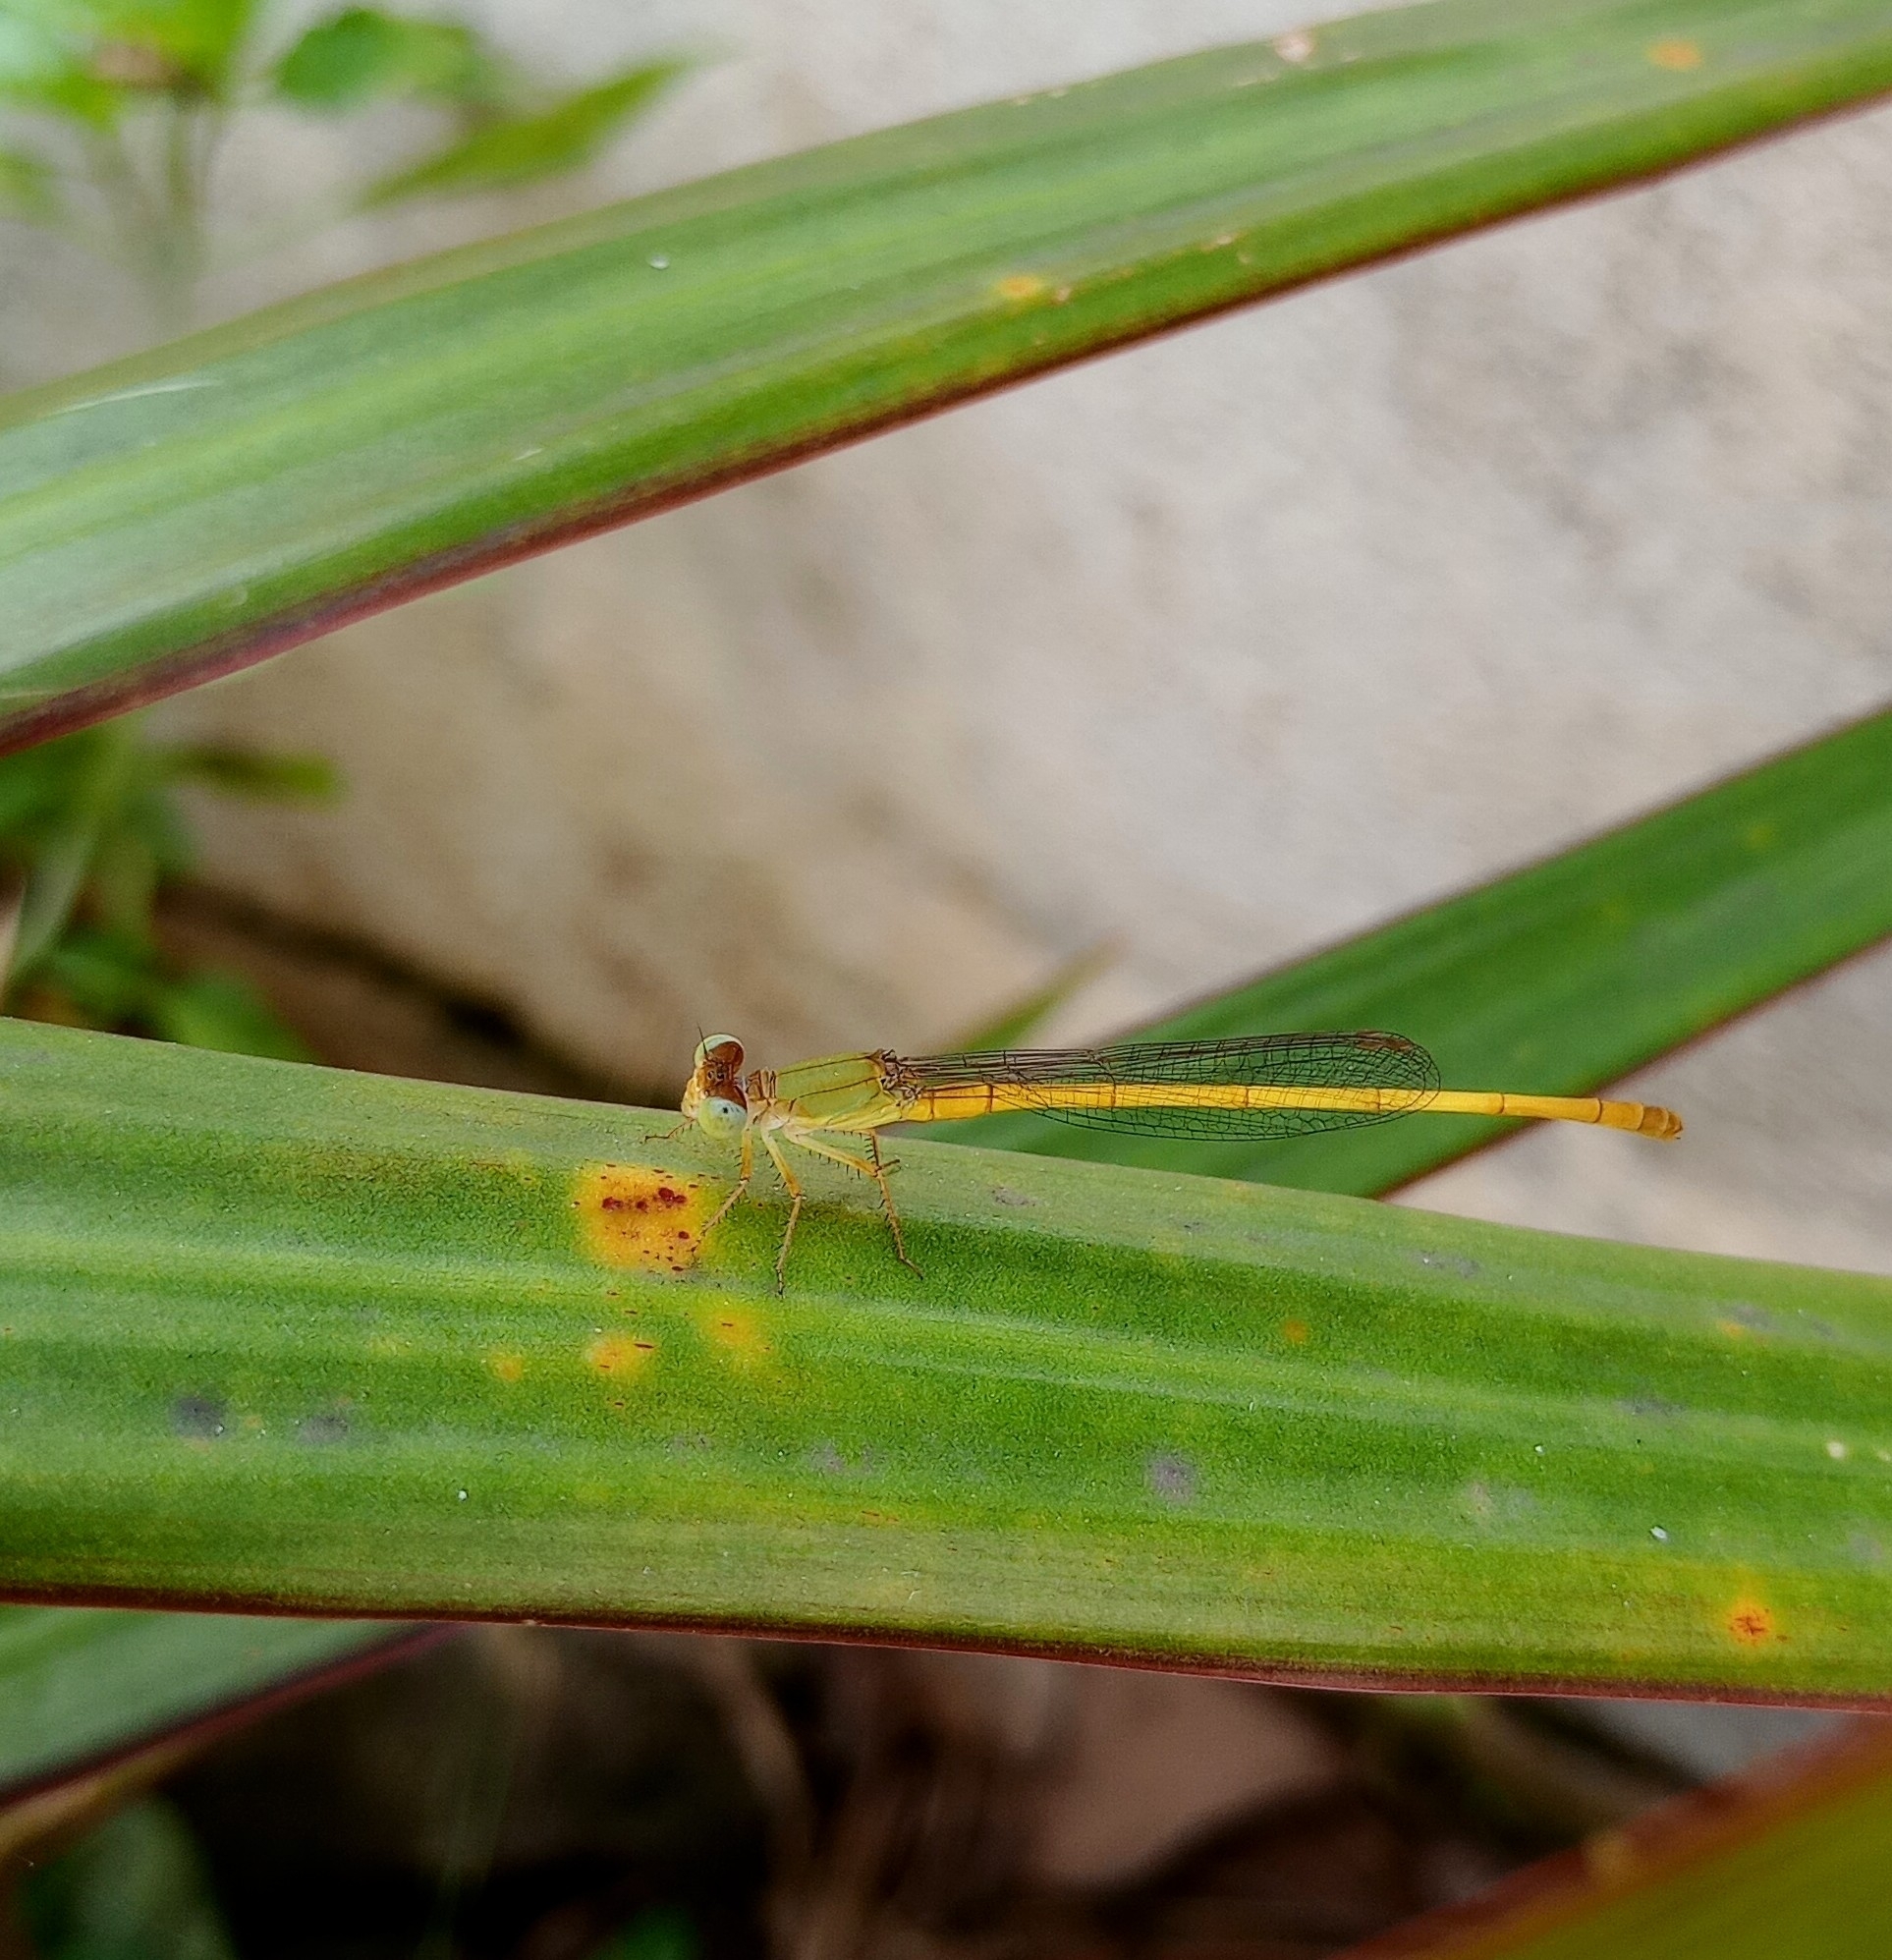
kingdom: Animalia
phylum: Arthropoda
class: Insecta
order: Odonata
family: Coenagrionidae
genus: Ceriagrion
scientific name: Ceriagrion coromandelianum
